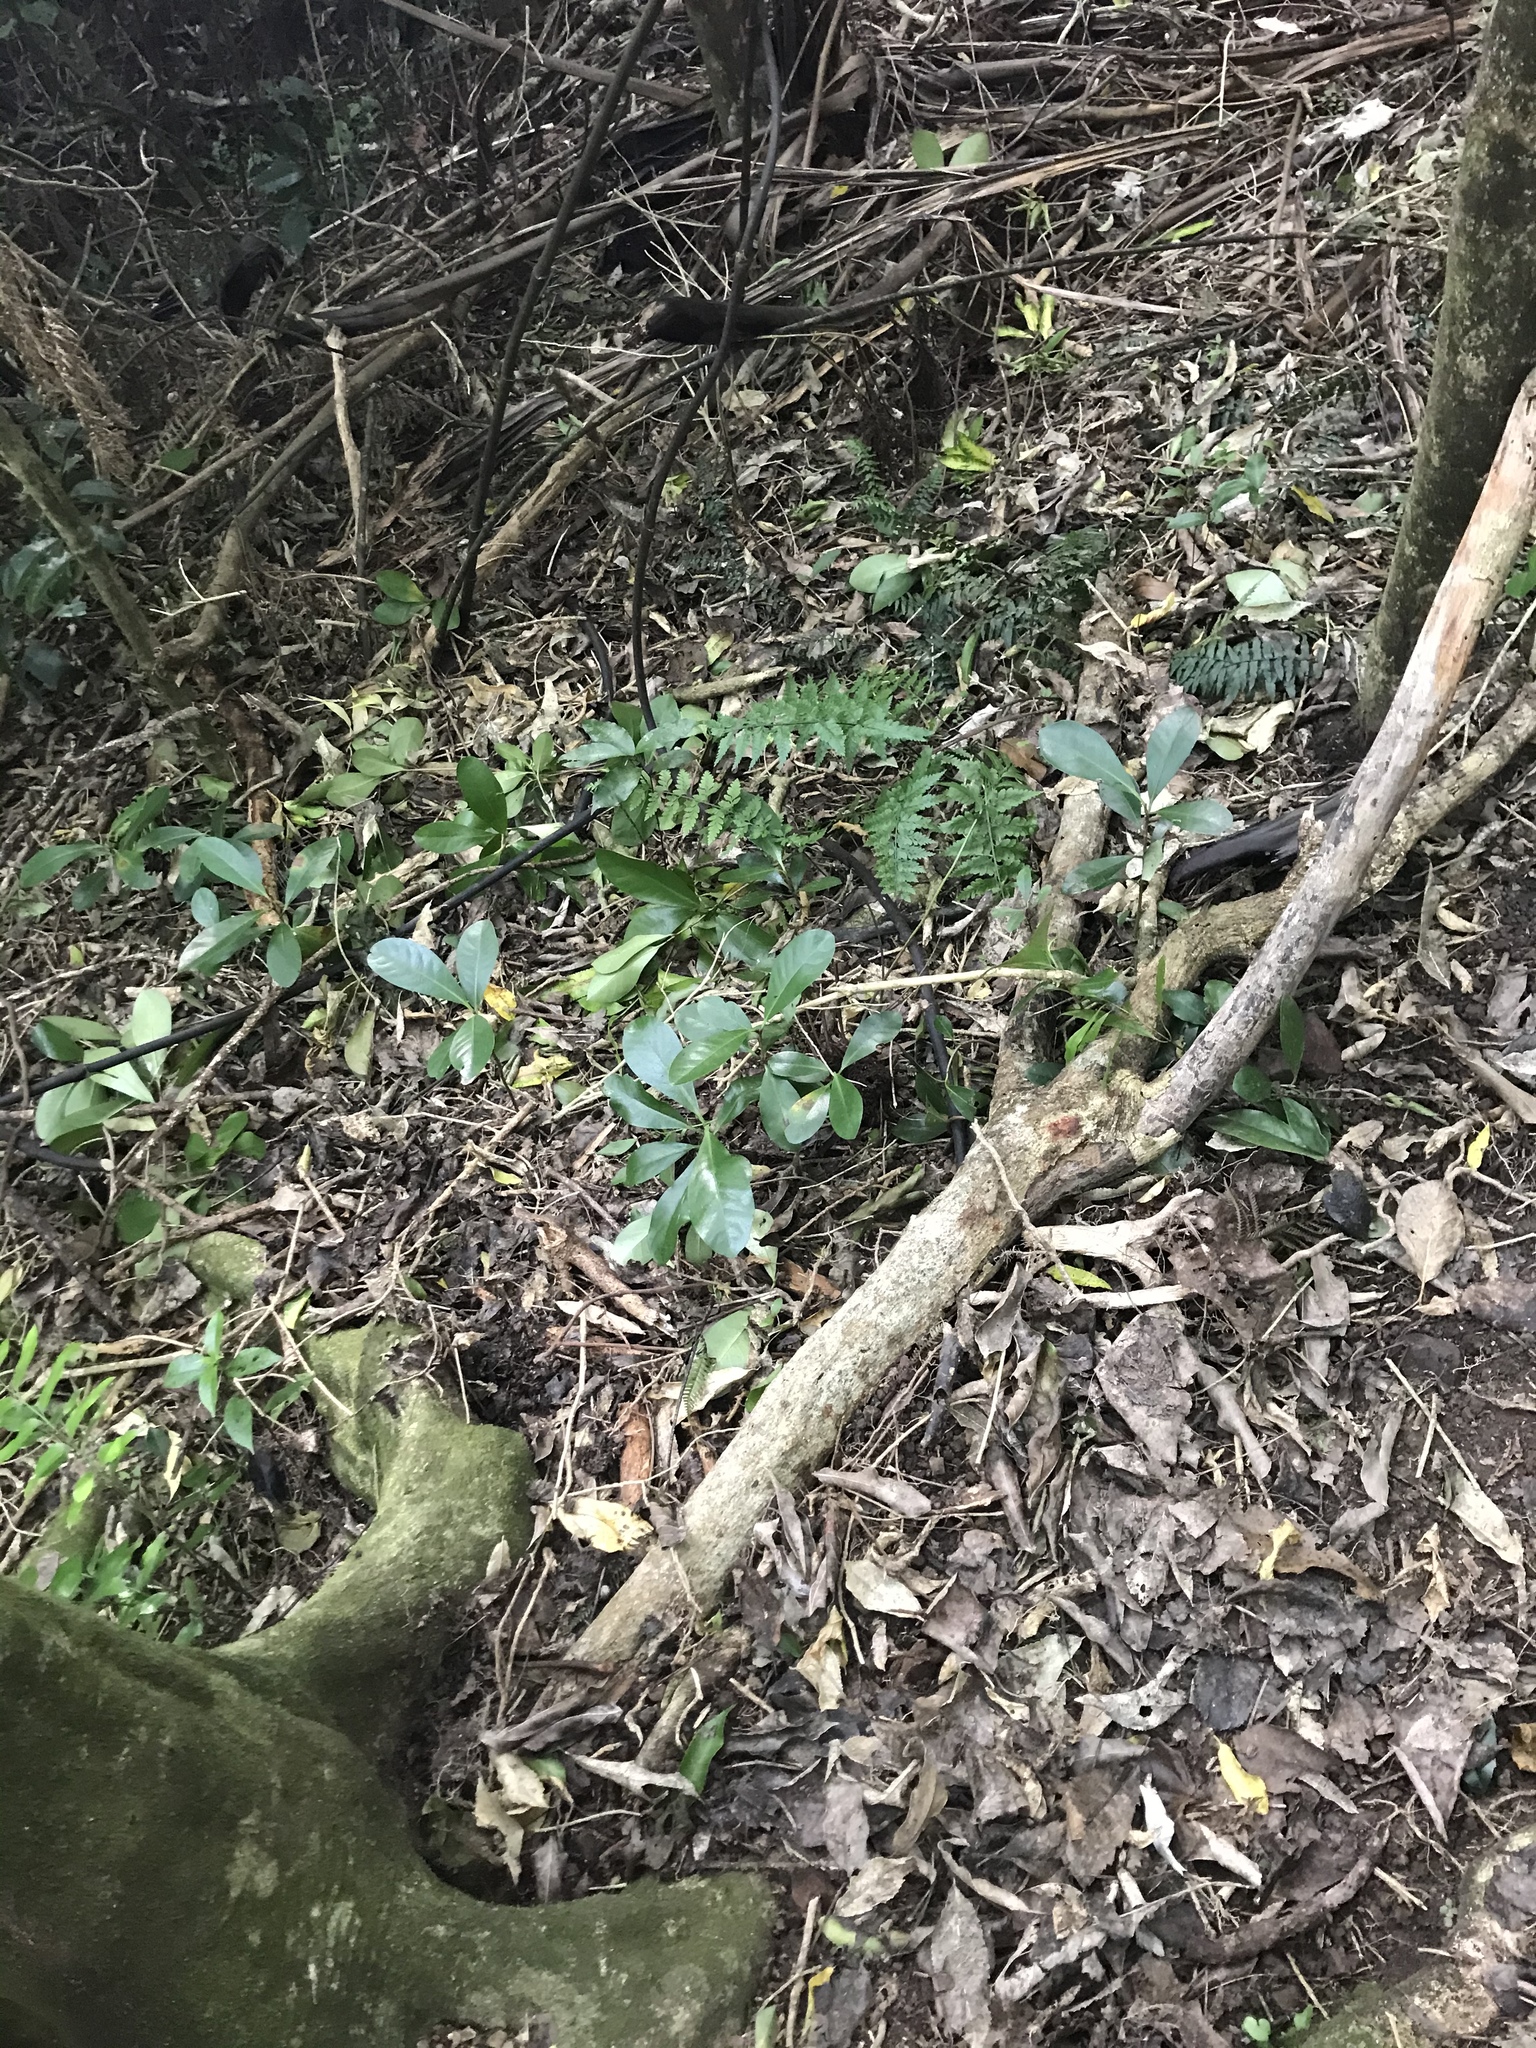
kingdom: Plantae
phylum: Tracheophyta
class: Magnoliopsida
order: Cucurbitales
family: Corynocarpaceae
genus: Corynocarpus
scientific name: Corynocarpus laevigatus
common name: New zealand laurel
